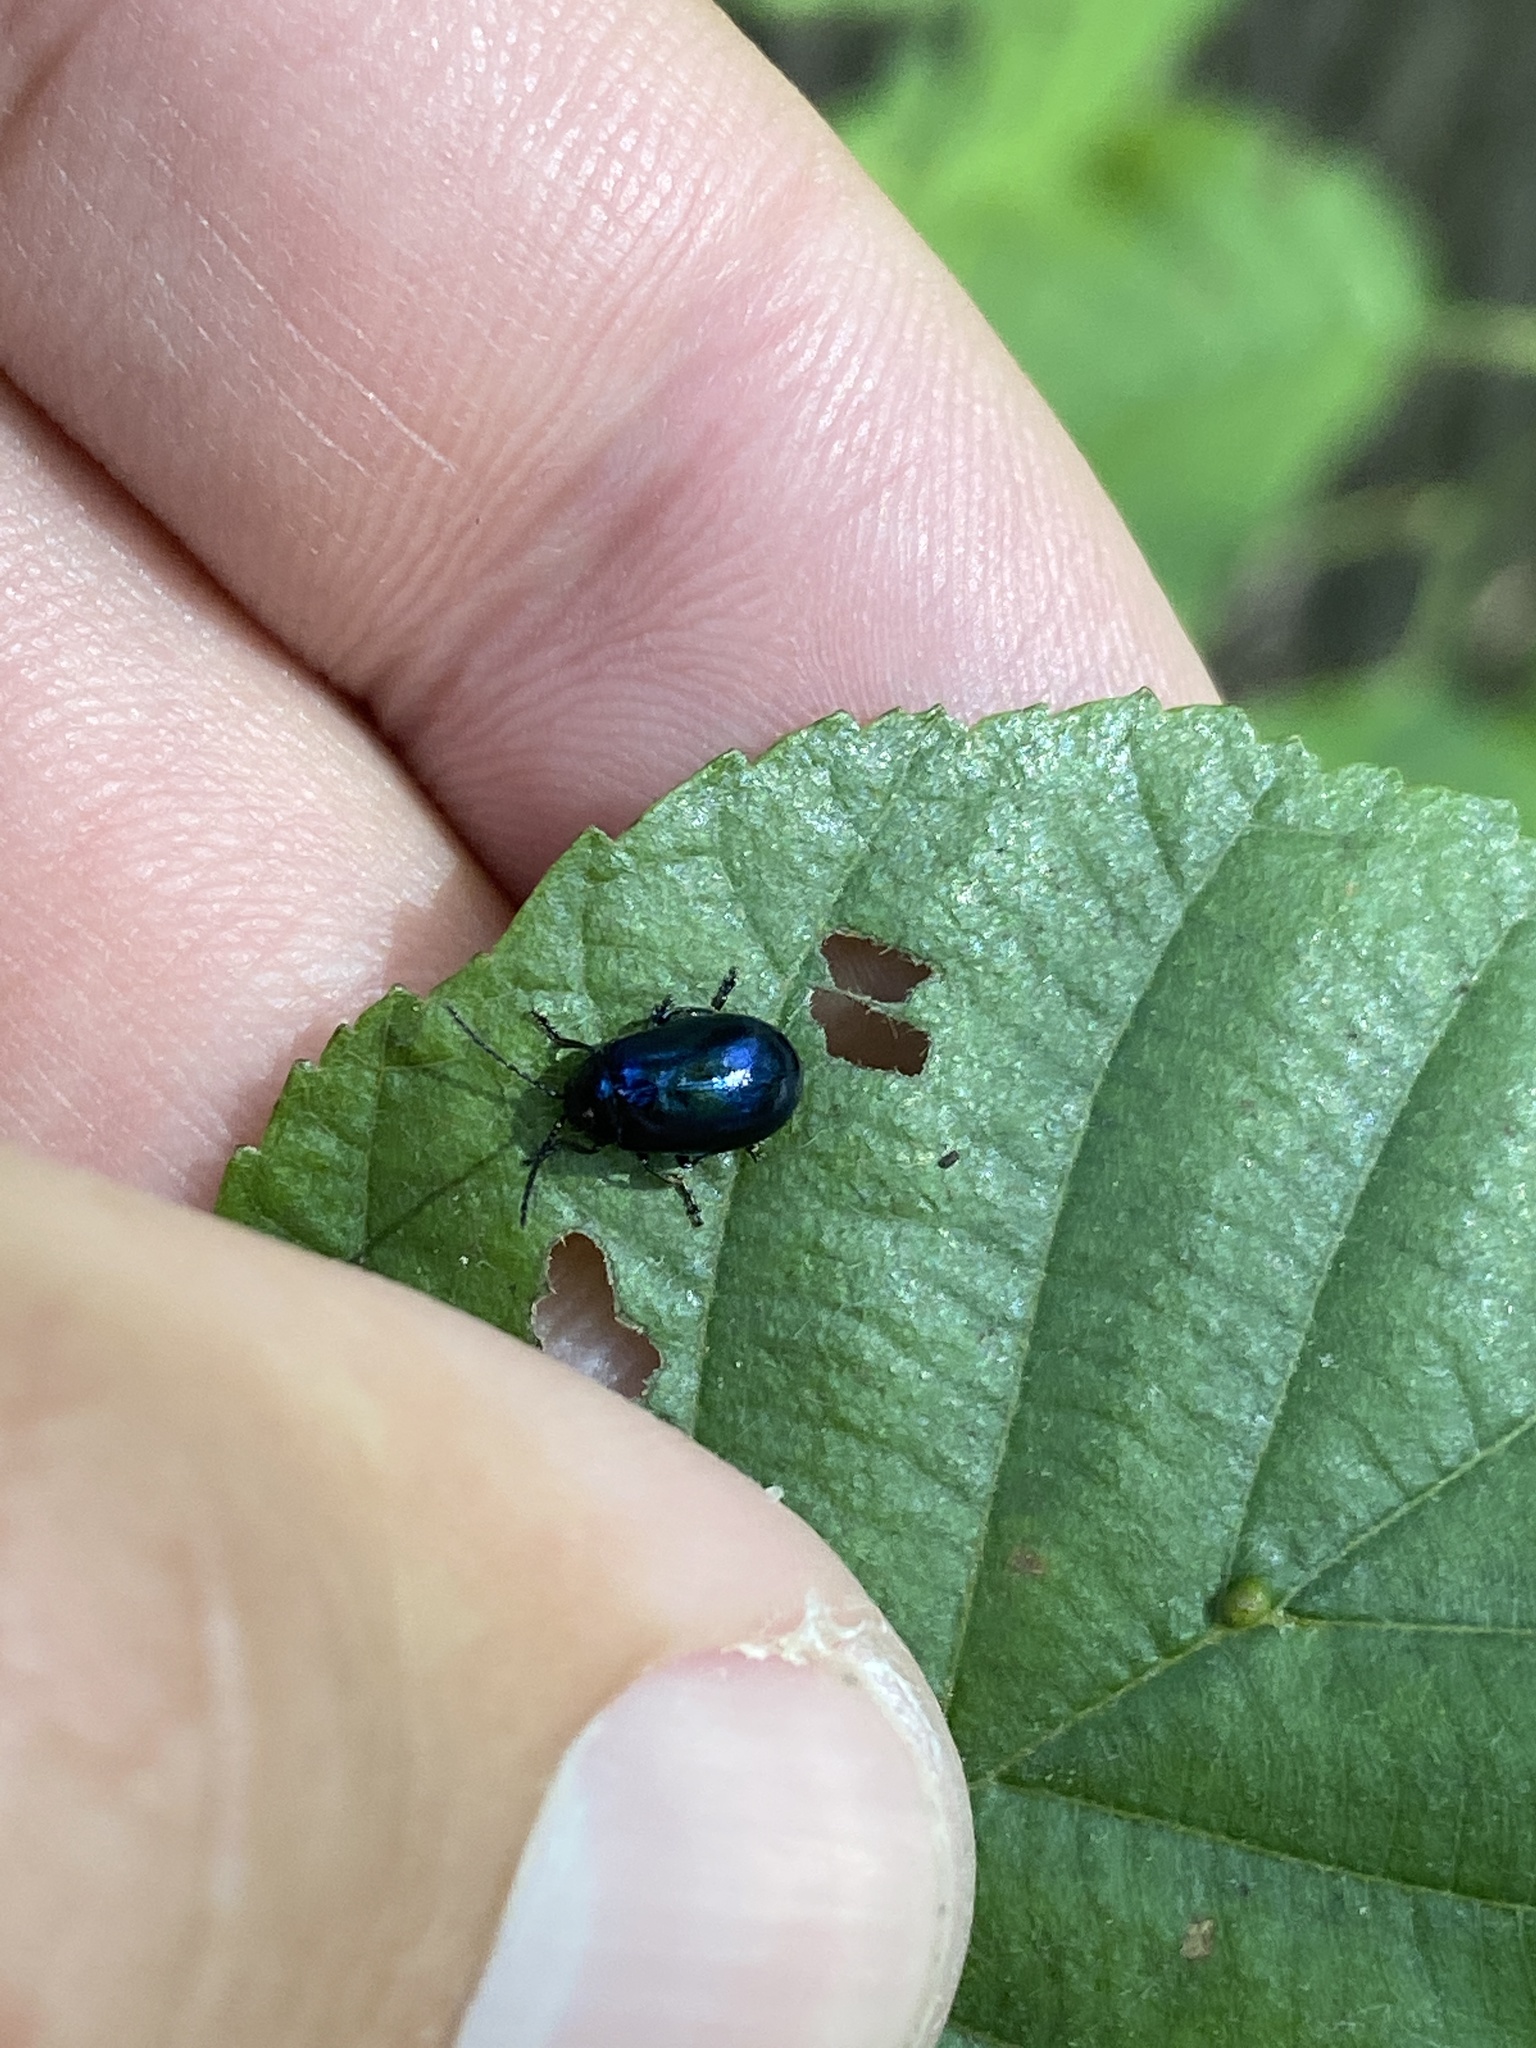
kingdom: Animalia
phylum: Arthropoda
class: Insecta
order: Coleoptera
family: Chrysomelidae
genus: Agelastica
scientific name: Agelastica alni
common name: Alder leaf beetle
